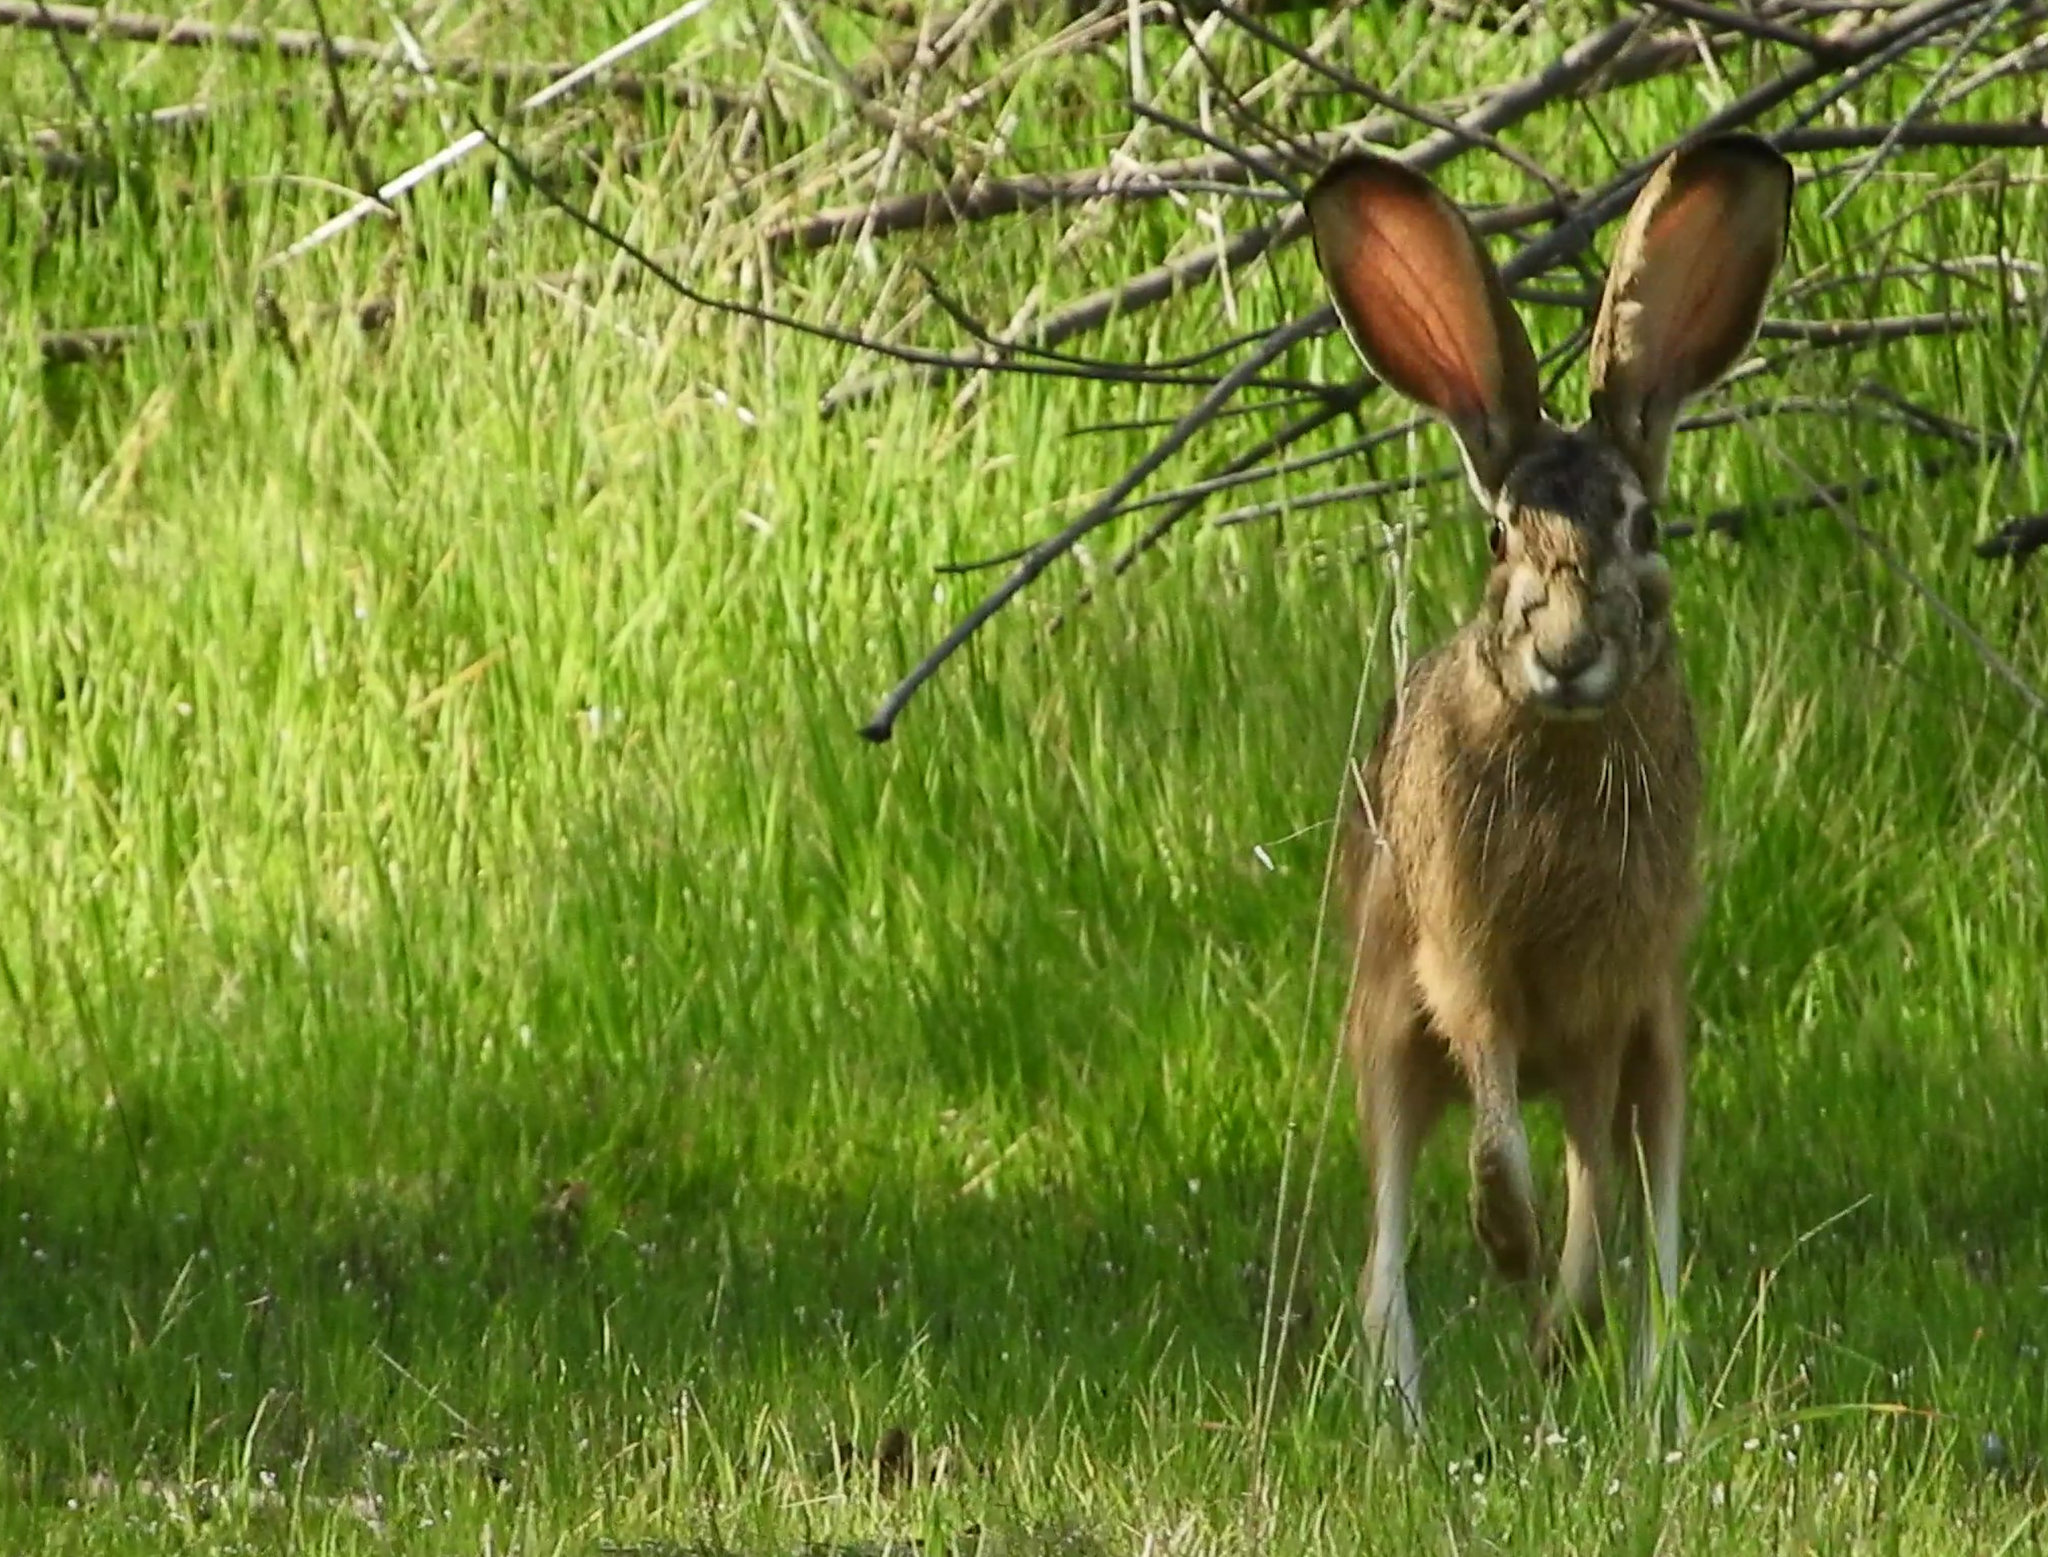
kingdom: Animalia
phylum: Chordata
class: Mammalia
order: Lagomorpha
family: Leporidae
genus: Lepus
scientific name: Lepus californicus
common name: Black-tailed jackrabbit
